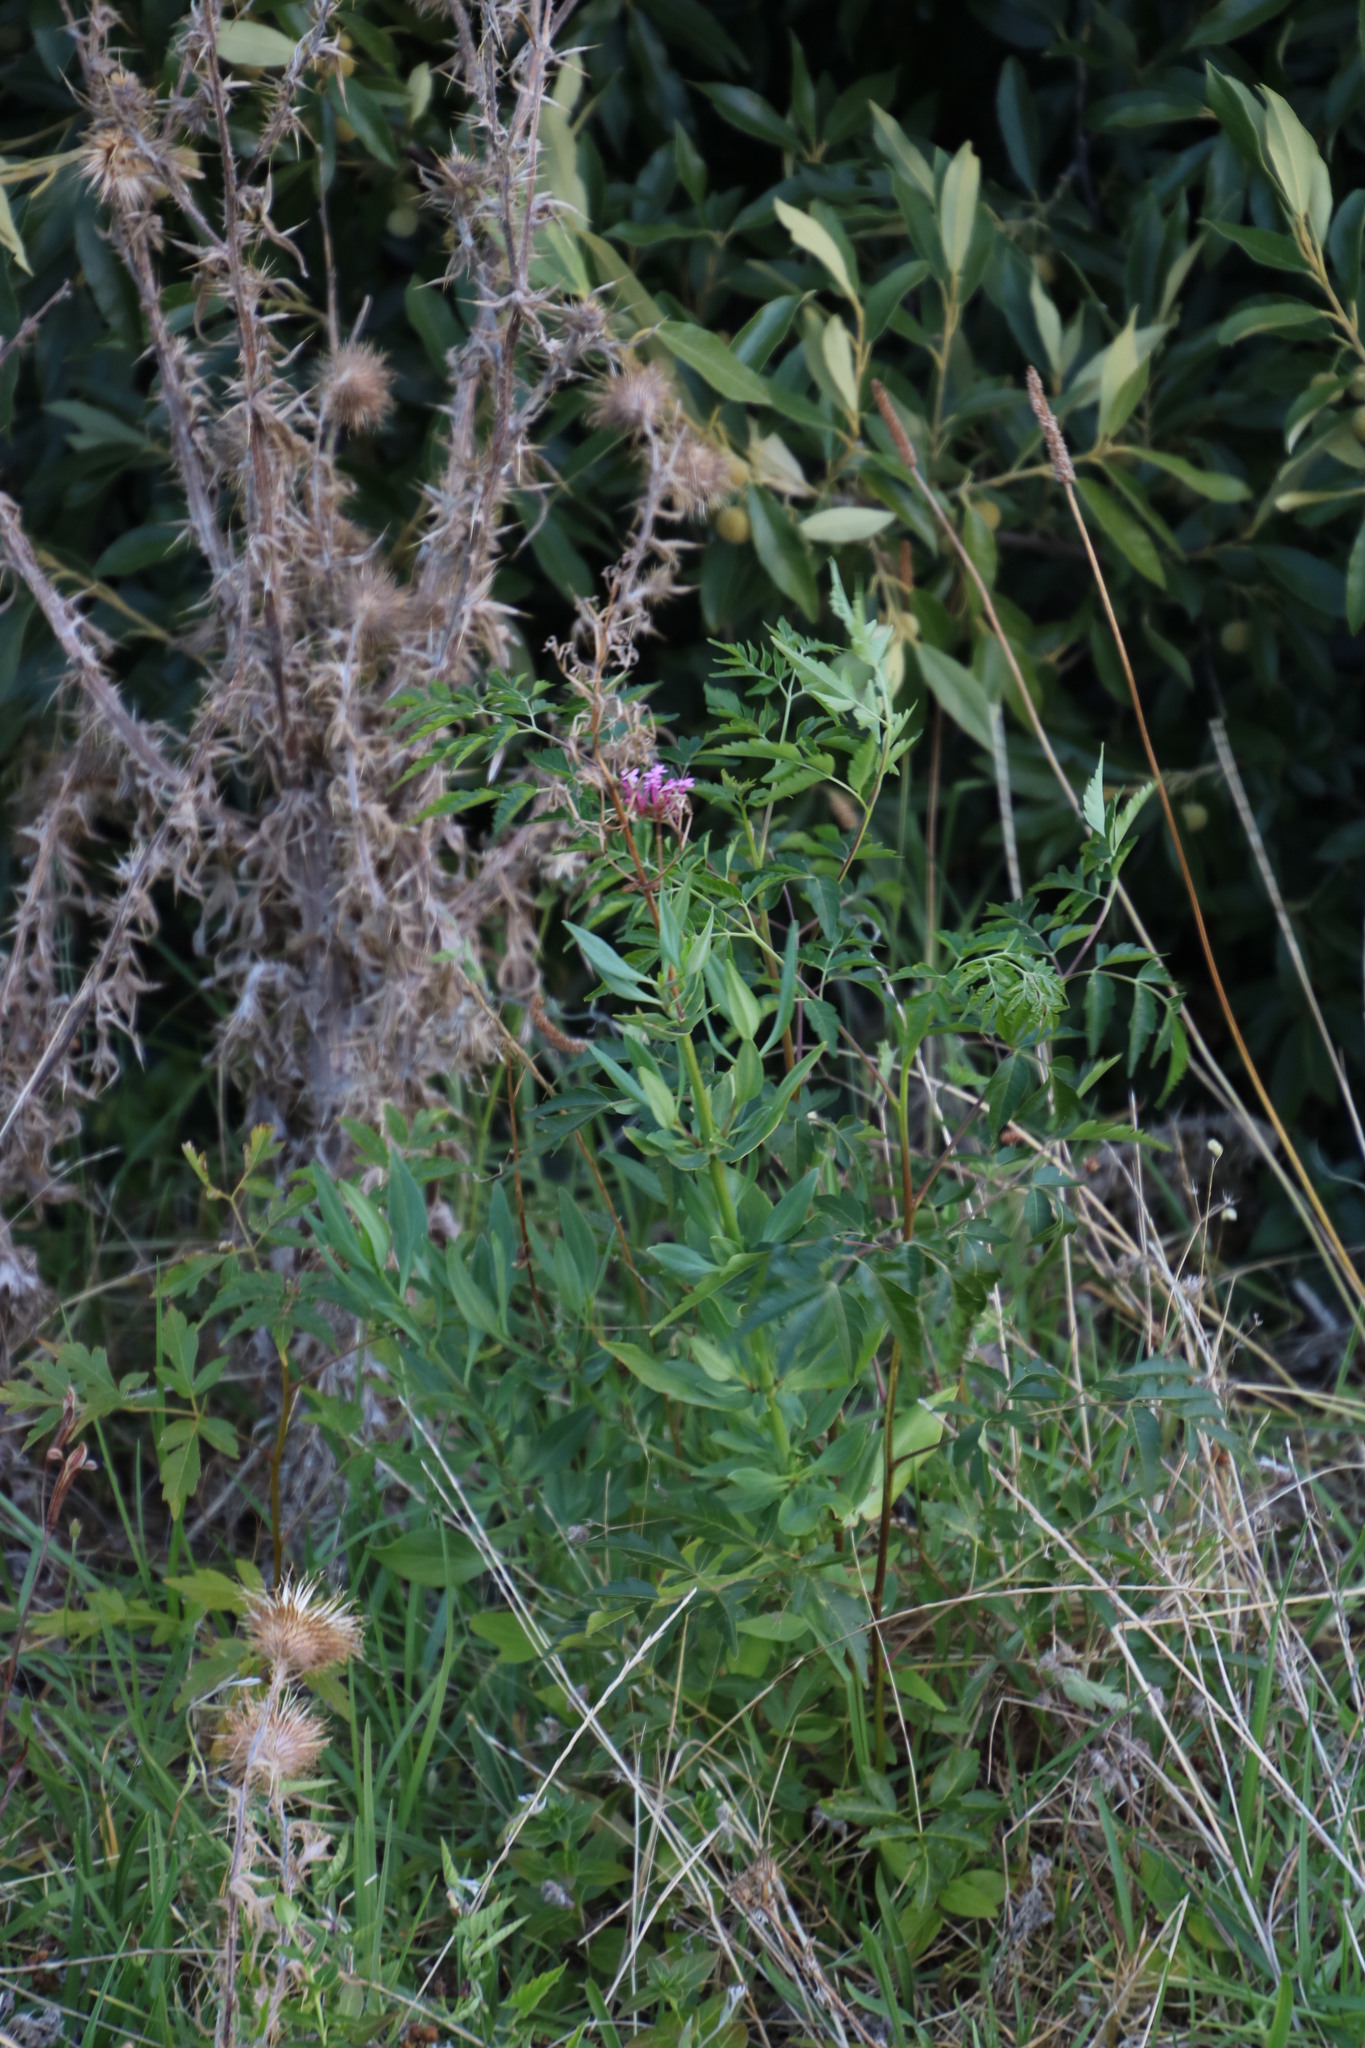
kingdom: Plantae
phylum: Tracheophyta
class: Magnoliopsida
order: Dipsacales
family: Caprifoliaceae
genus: Centranthus
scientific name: Centranthus ruber
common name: Red valerian
